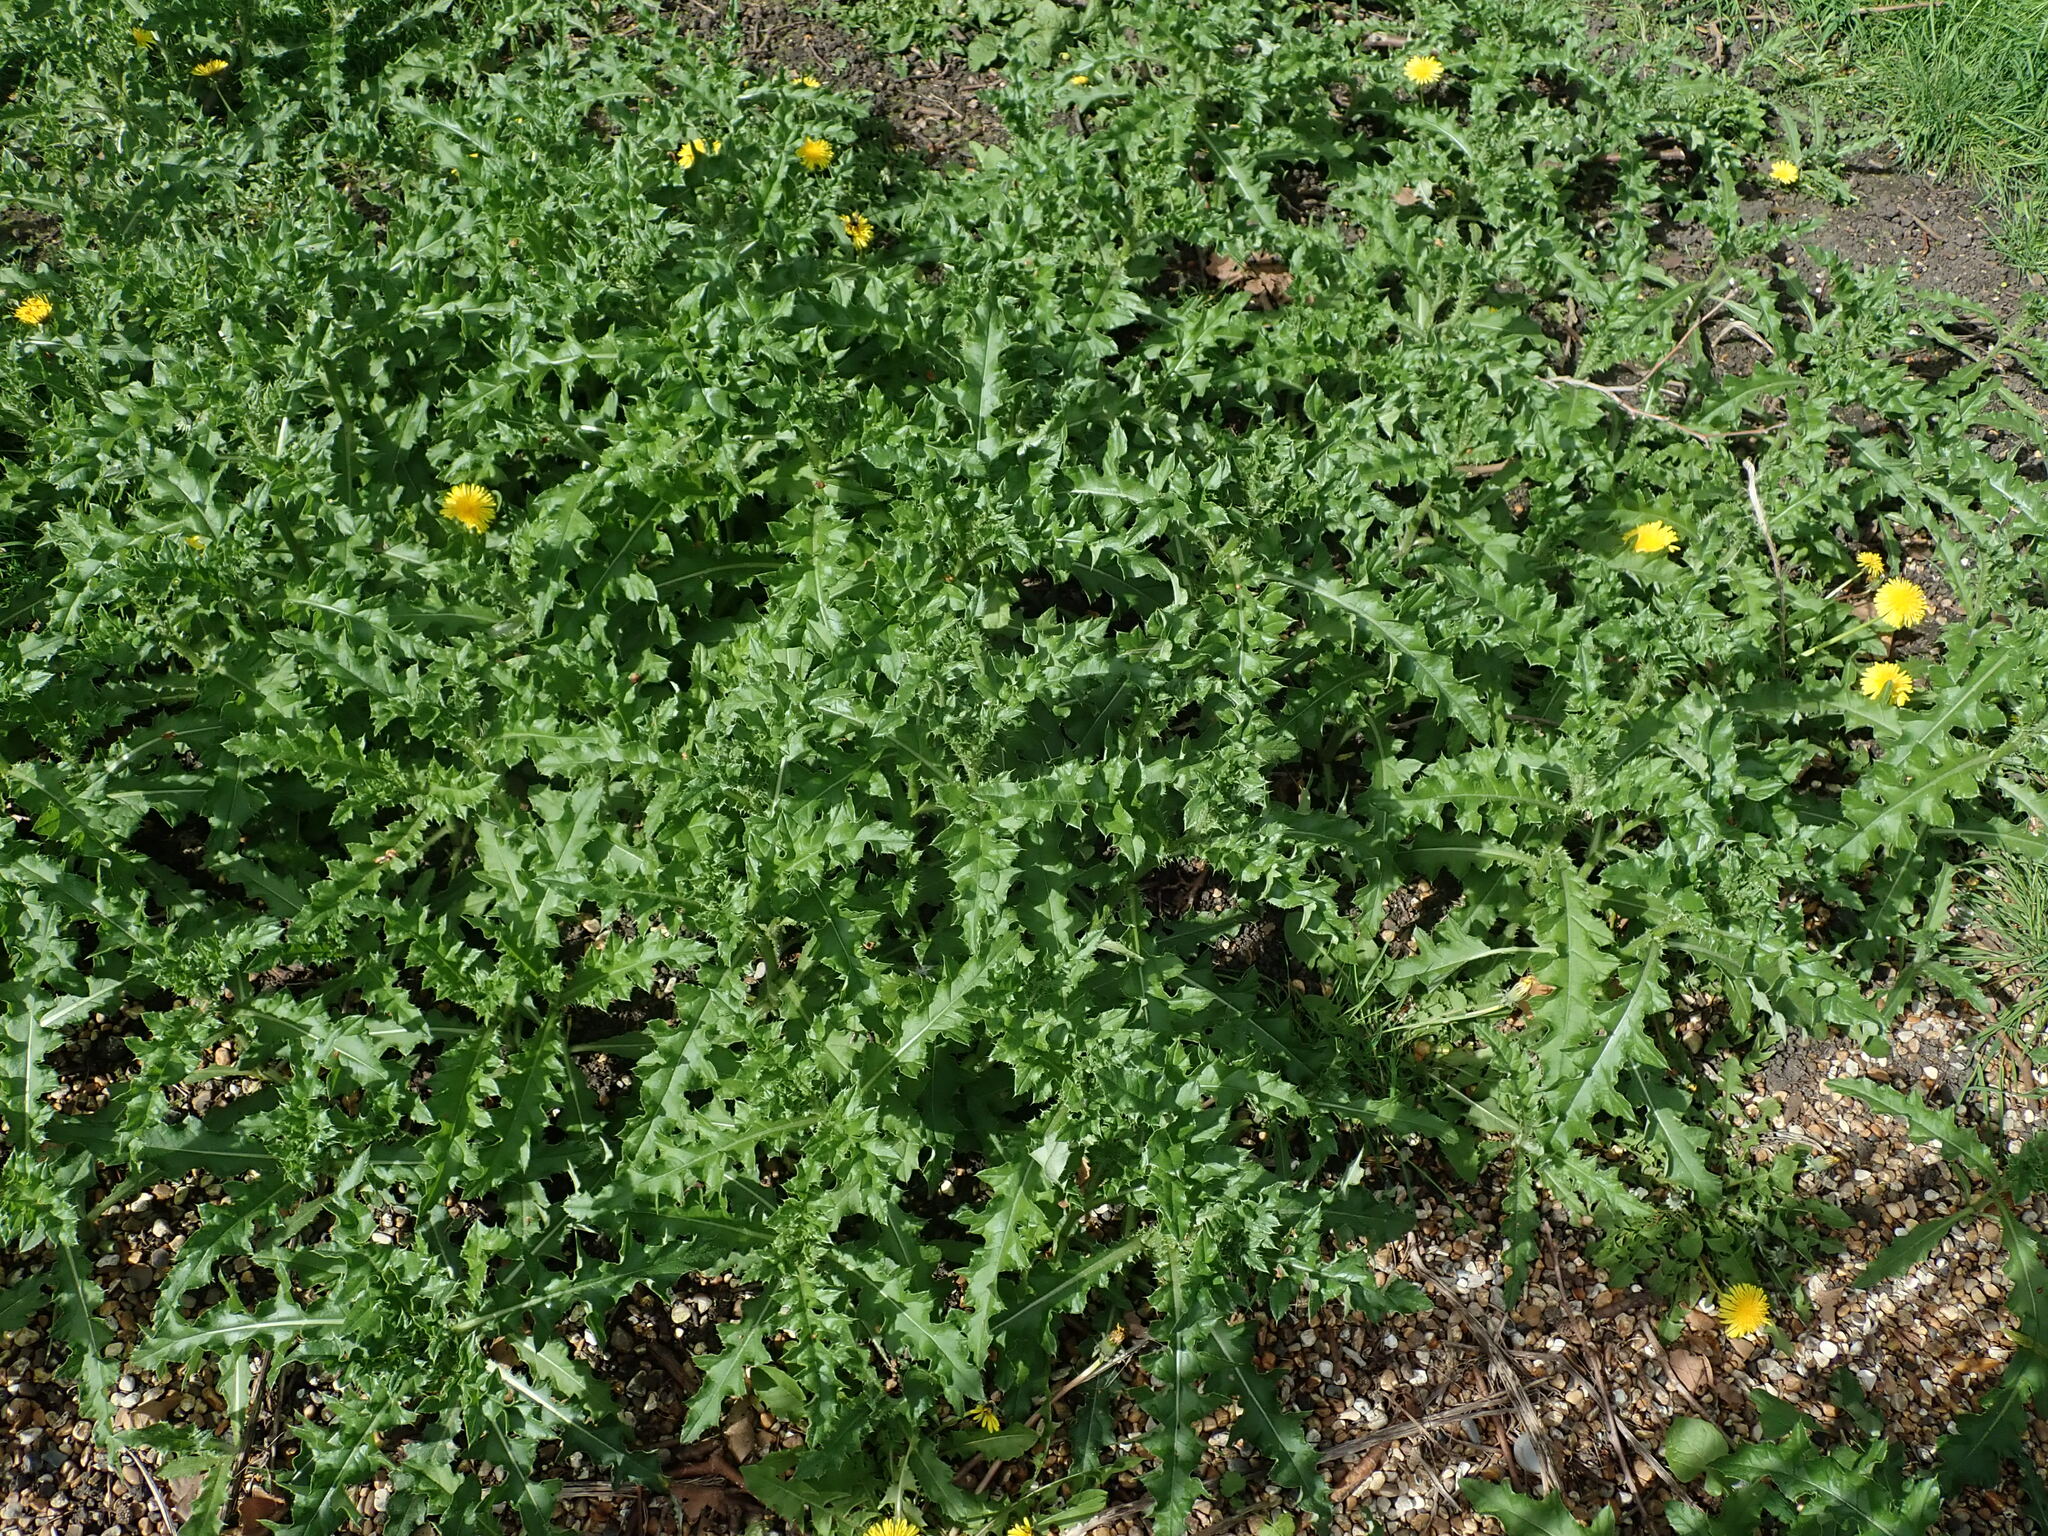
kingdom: Plantae
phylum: Tracheophyta
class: Magnoliopsida
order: Asterales
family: Asteraceae
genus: Cirsium
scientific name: Cirsium arvense
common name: Creeping thistle
